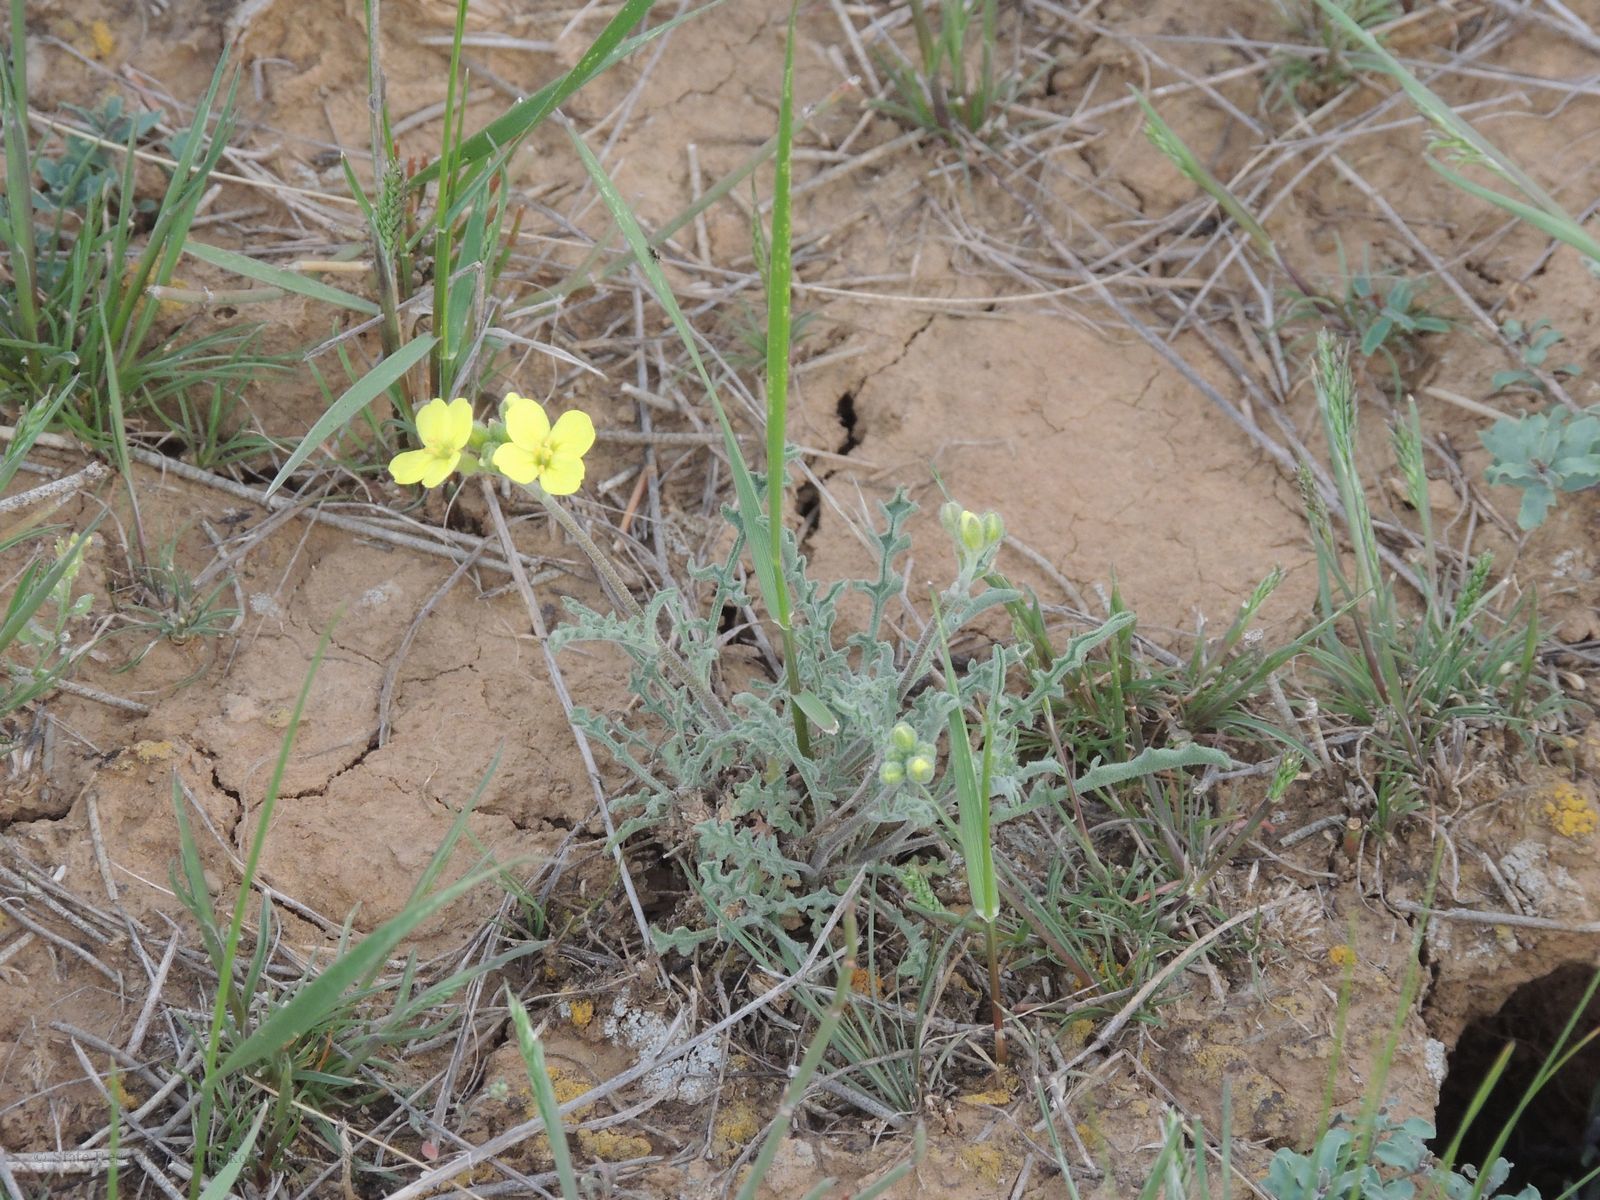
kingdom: Plantae
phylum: Tracheophyta
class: Magnoliopsida
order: Brassicales
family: Brassicaceae
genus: Sterigmostemum
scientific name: Sterigmostemum caspicum
